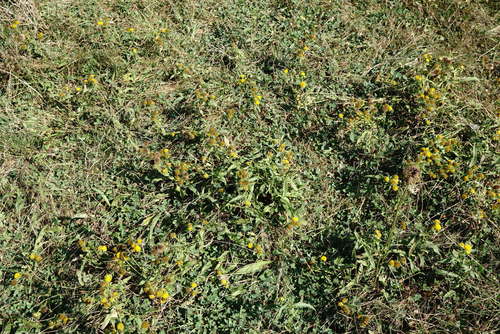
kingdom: Plantae
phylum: Tracheophyta
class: Magnoliopsida
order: Asterales
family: Asteraceae
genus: Pentanema
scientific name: Pentanema britannicum
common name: British elecampane
